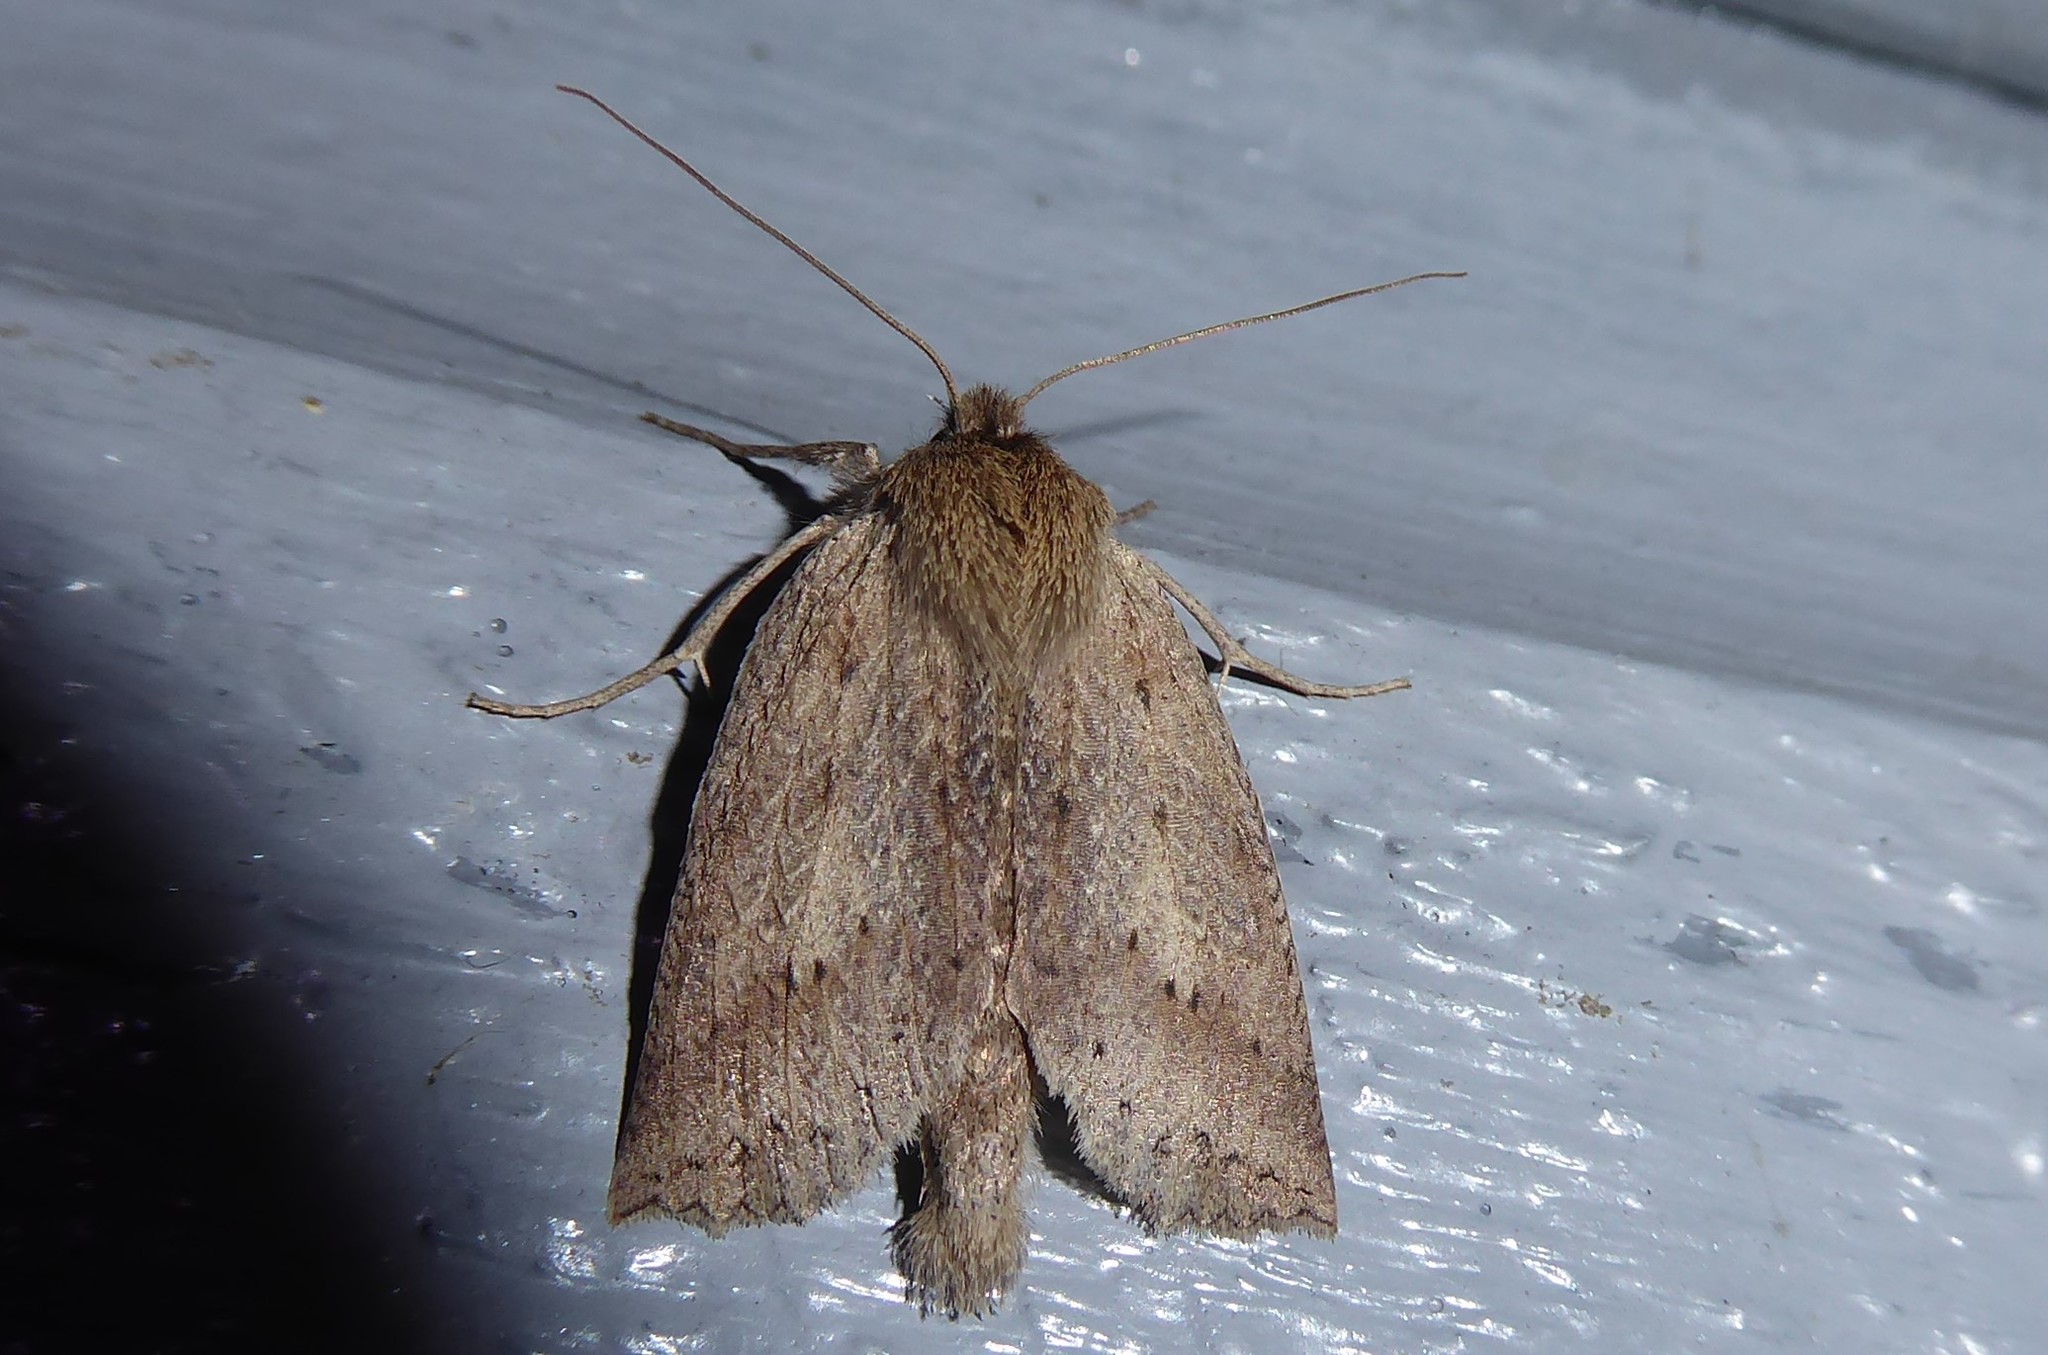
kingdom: Animalia
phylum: Arthropoda
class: Insecta
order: Lepidoptera
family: Geometridae
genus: Declana
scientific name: Declana leptomera
